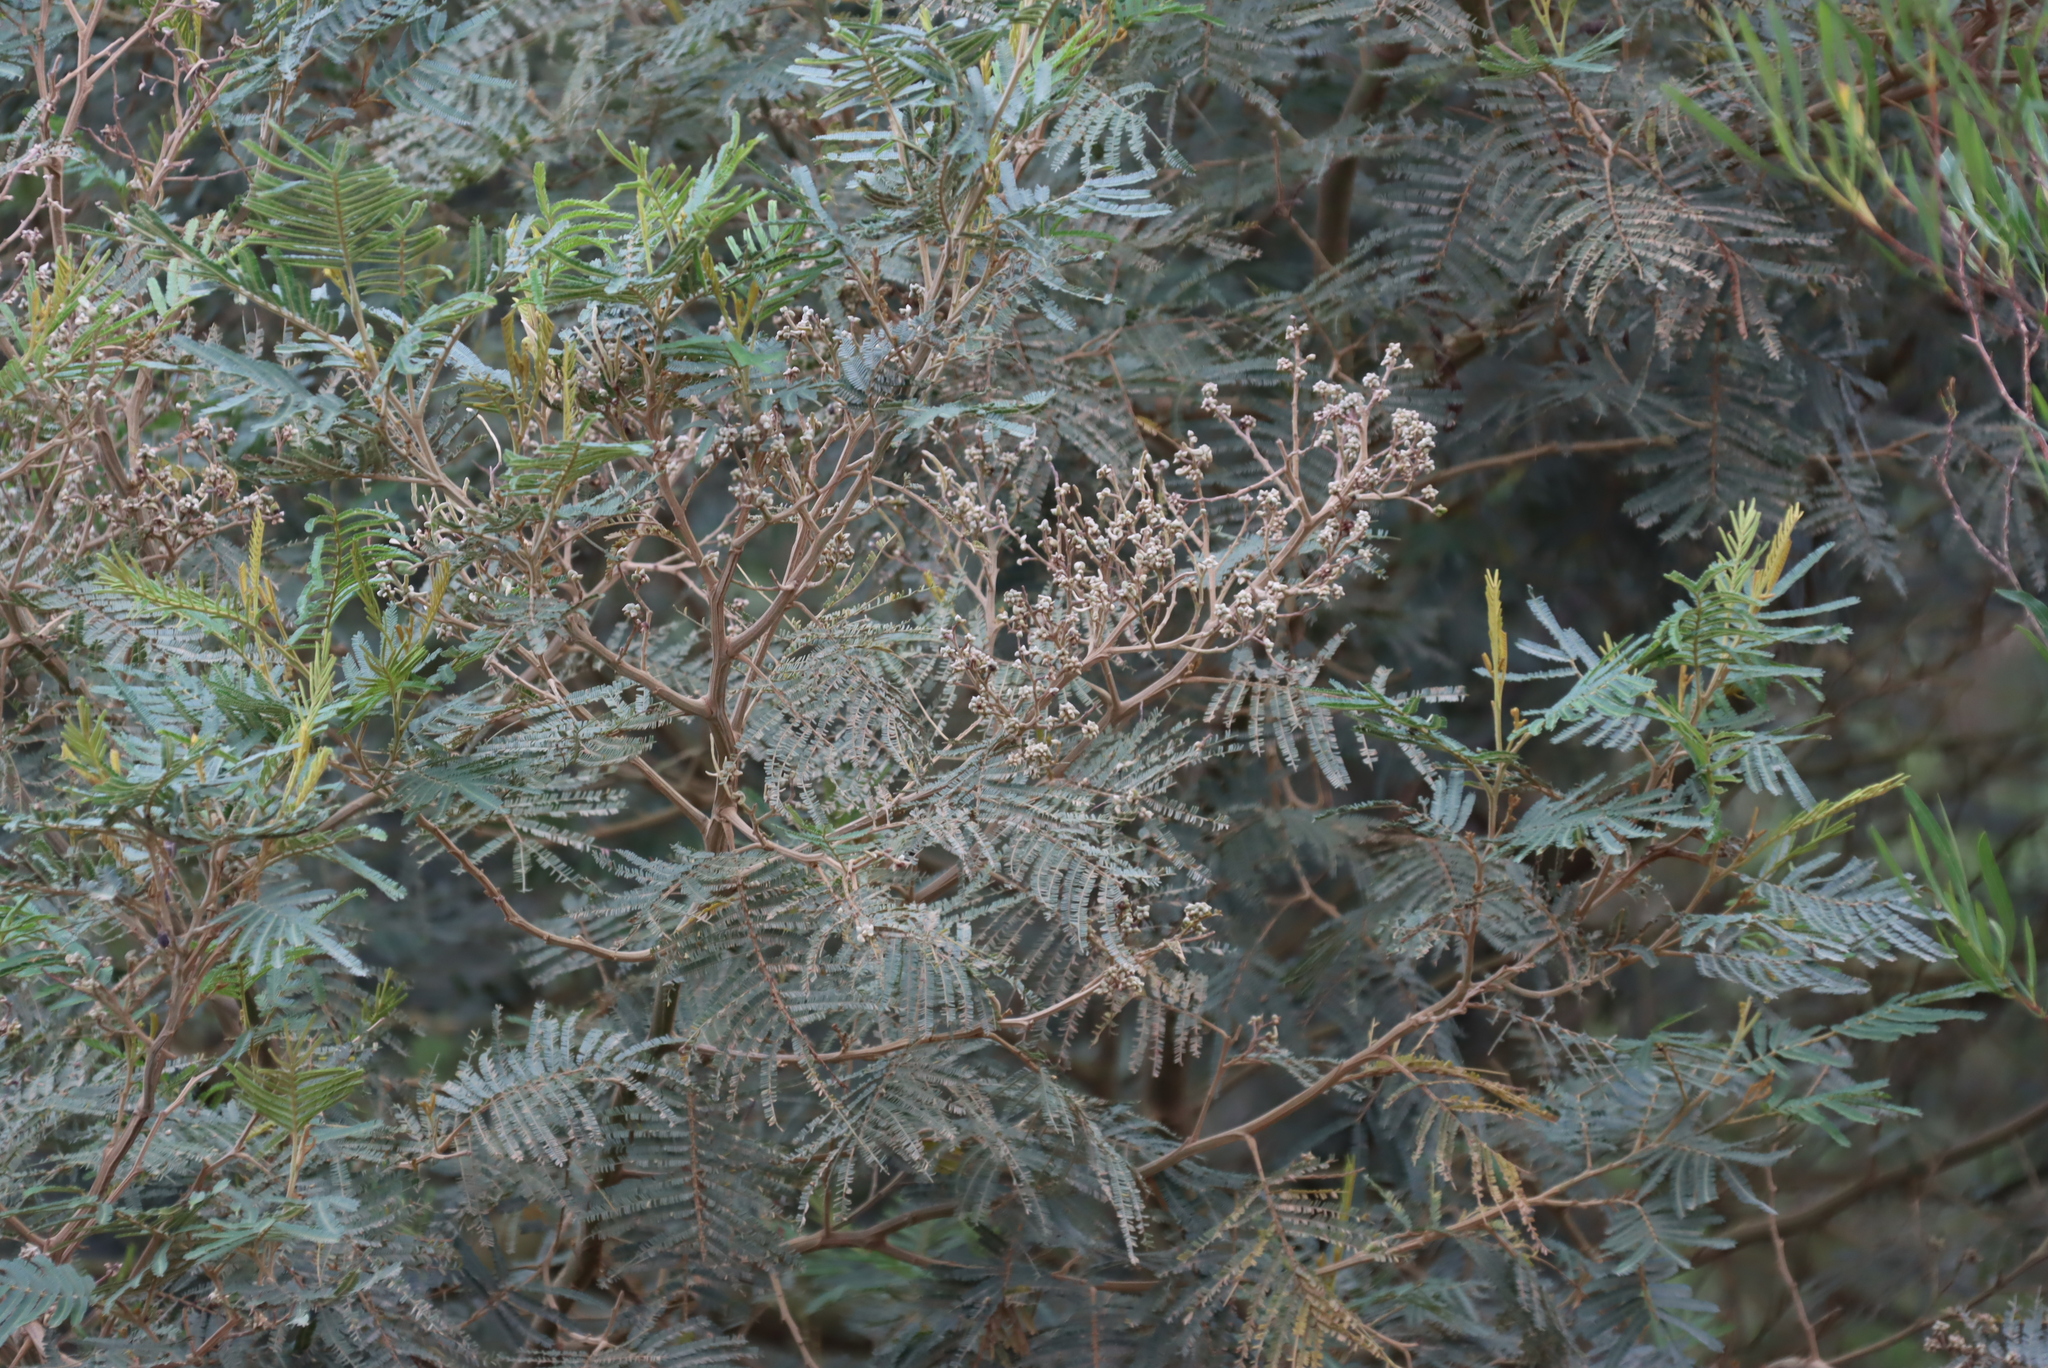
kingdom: Plantae
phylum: Tracheophyta
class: Magnoliopsida
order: Fabales
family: Fabaceae
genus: Acacia
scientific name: Acacia mearnsii
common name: Black wattle
